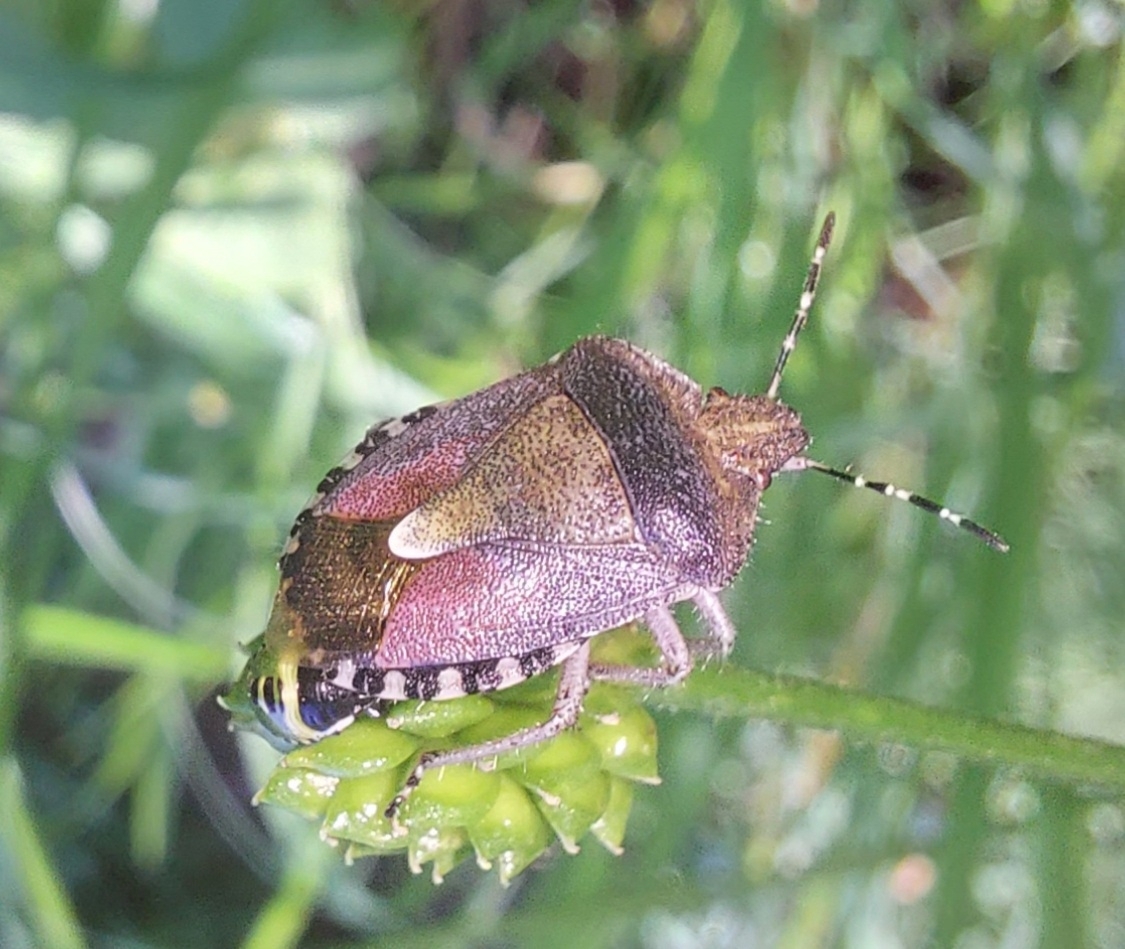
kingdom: Animalia
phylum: Arthropoda
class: Insecta
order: Hemiptera
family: Pentatomidae
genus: Dolycoris
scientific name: Dolycoris baccarum
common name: Sloe bug
